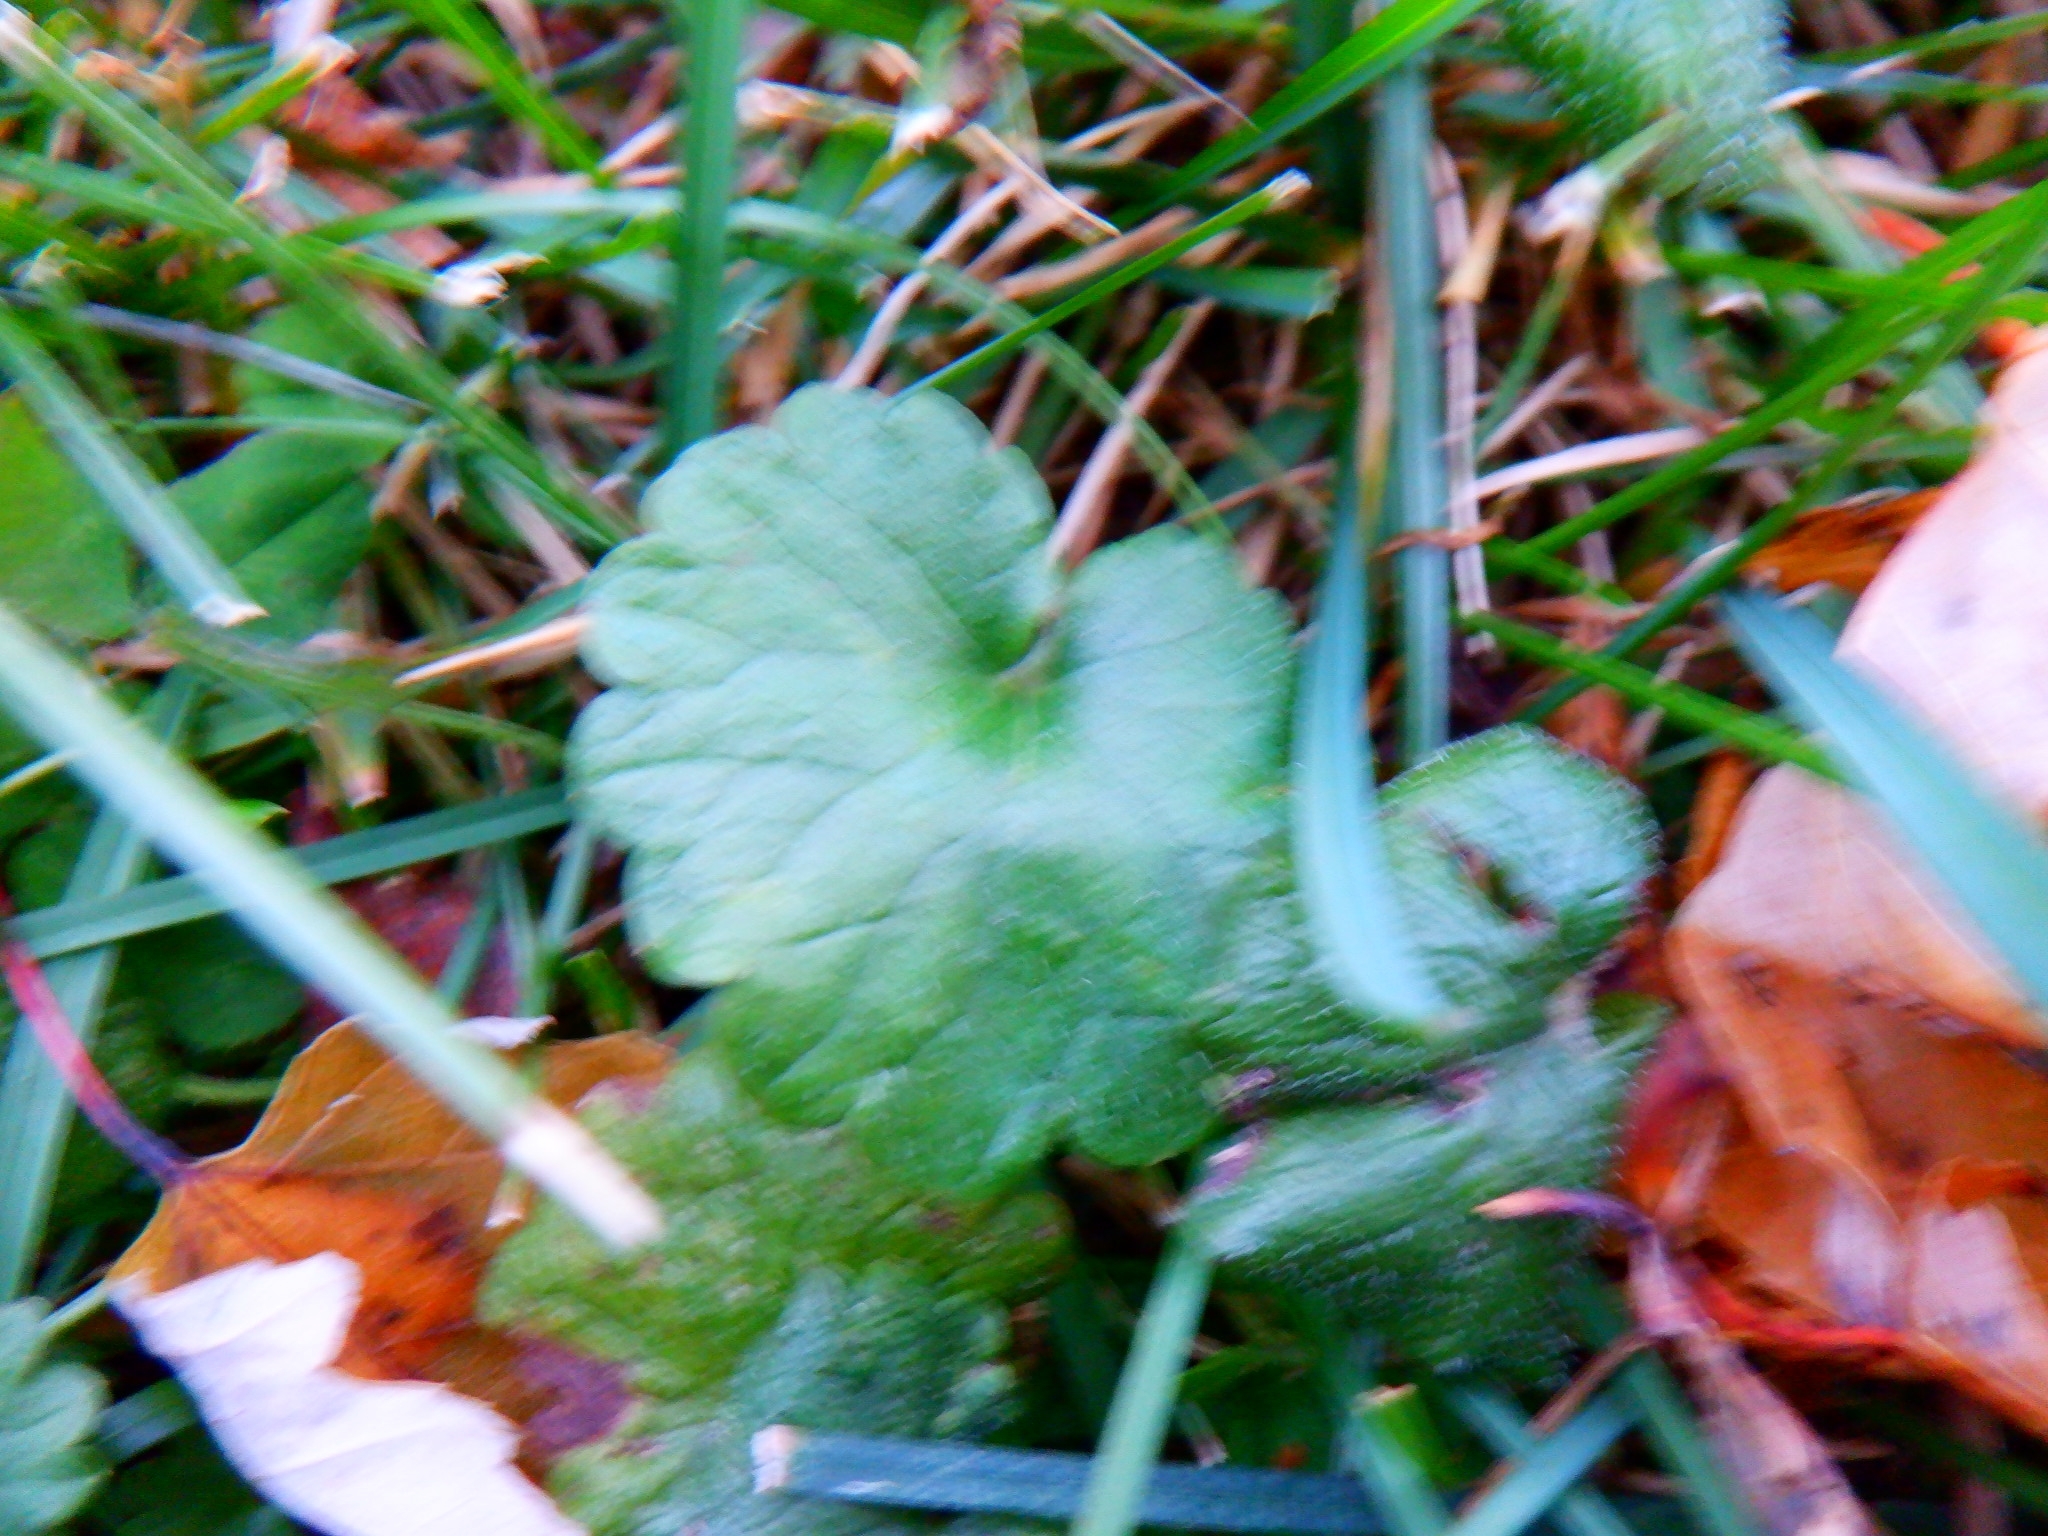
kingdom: Plantae
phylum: Tracheophyta
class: Magnoliopsida
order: Lamiales
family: Lamiaceae
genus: Glechoma
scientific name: Glechoma hederacea
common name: Ground ivy
